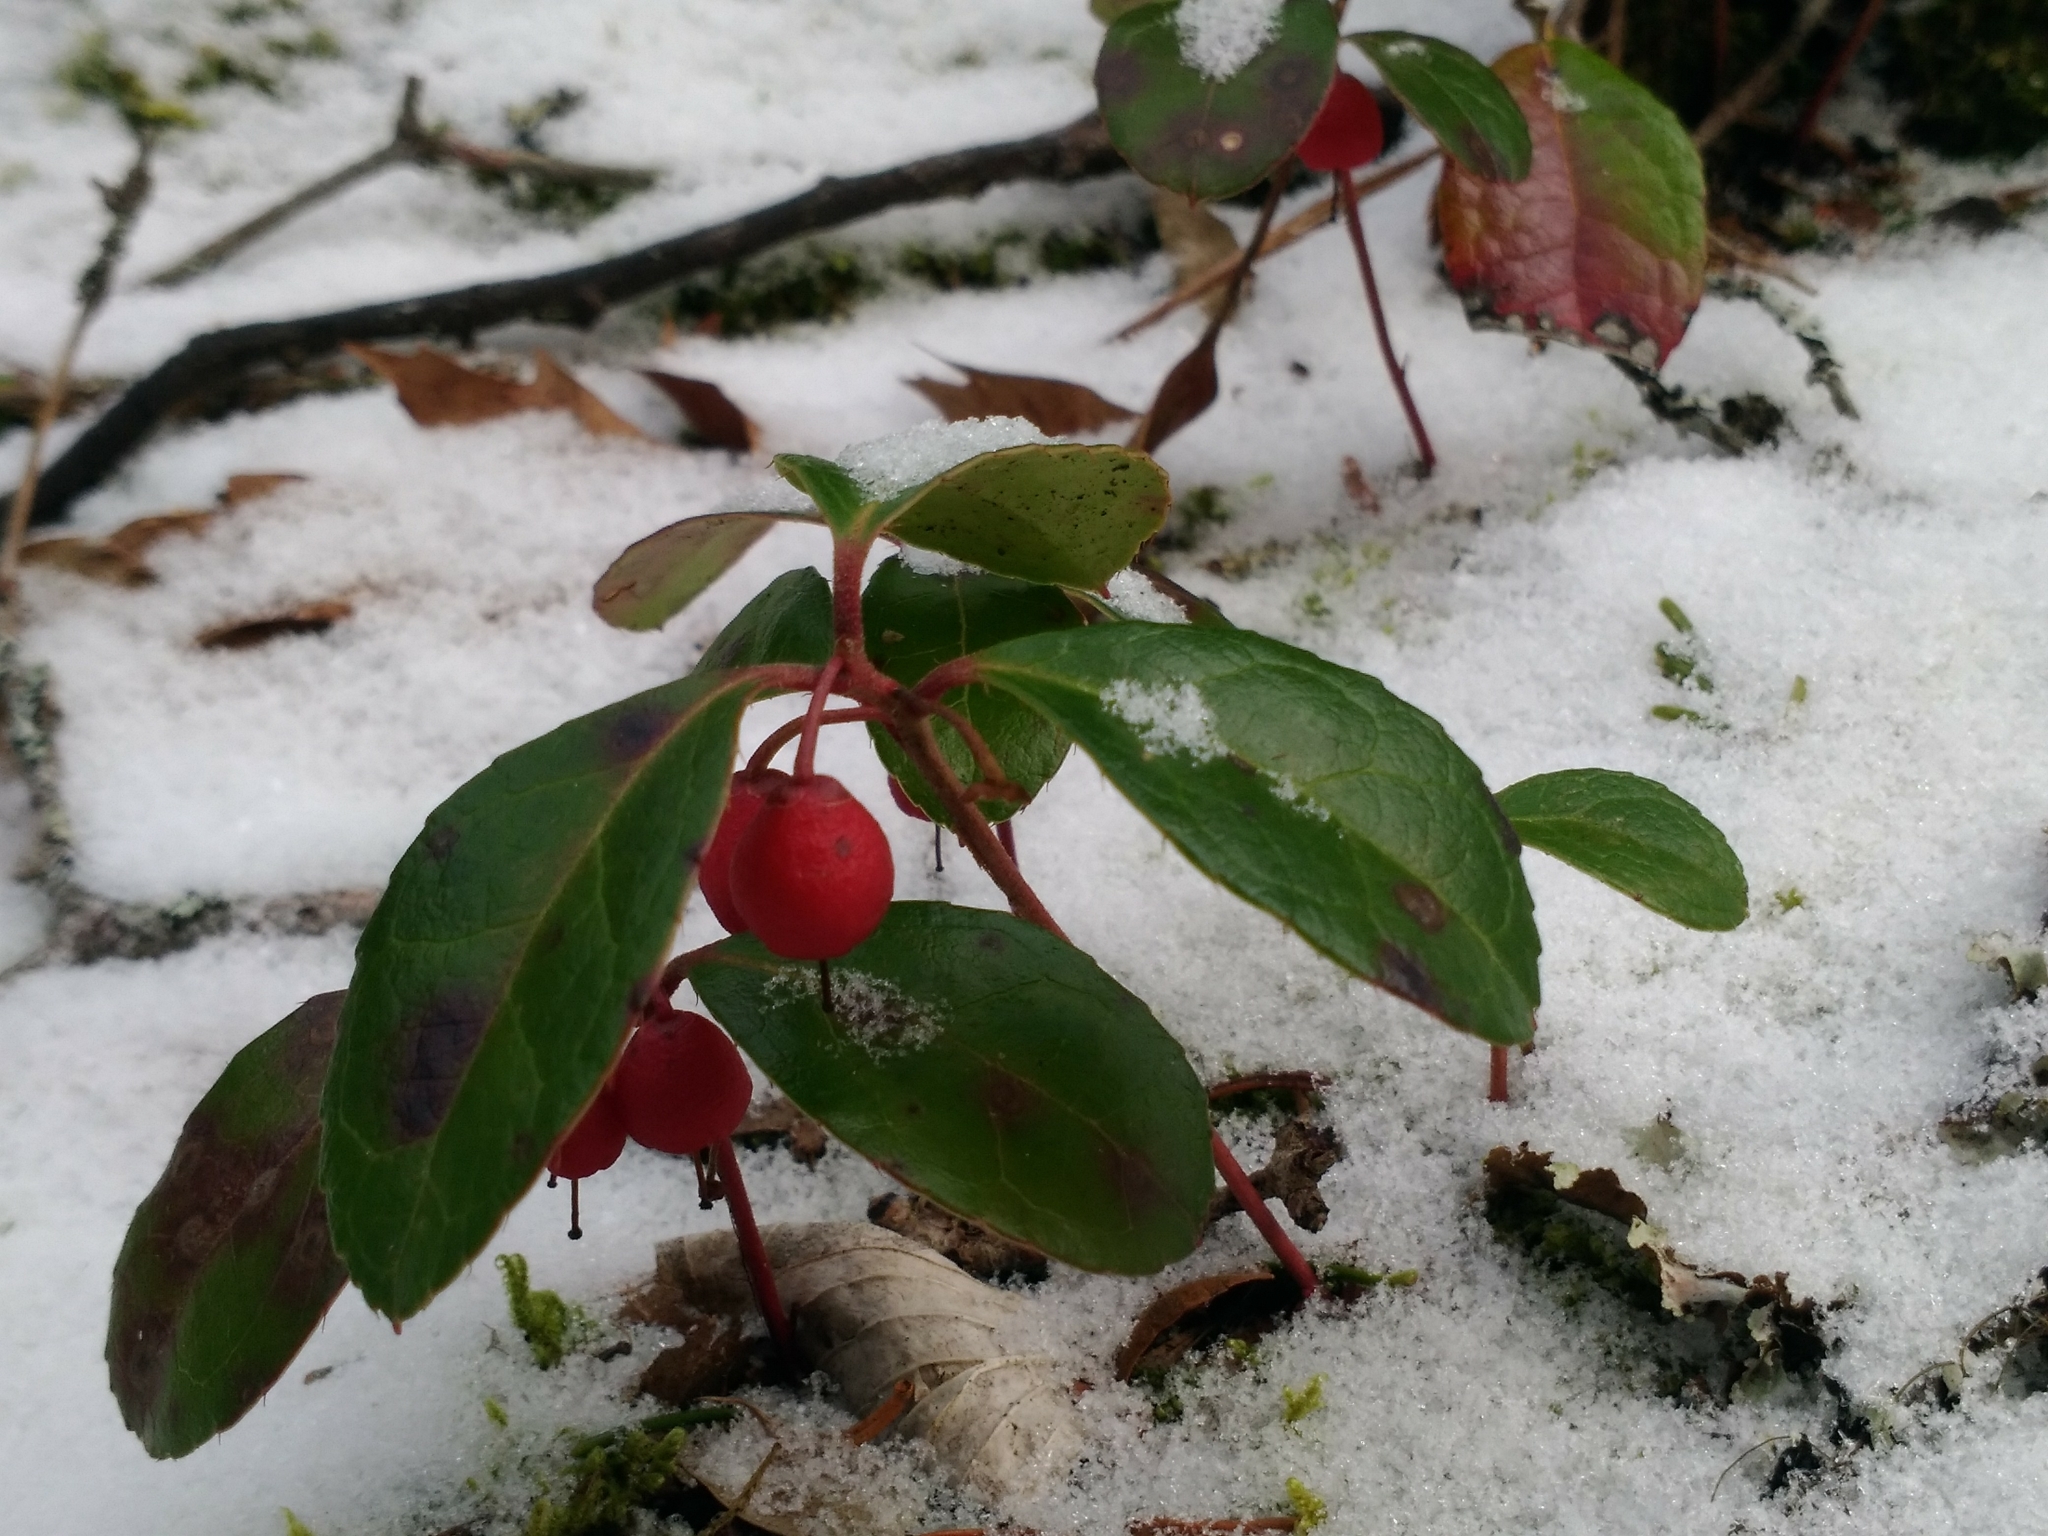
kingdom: Plantae
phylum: Tracheophyta
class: Magnoliopsida
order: Ericales
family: Ericaceae
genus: Gaultheria
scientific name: Gaultheria procumbens
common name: Checkerberry
